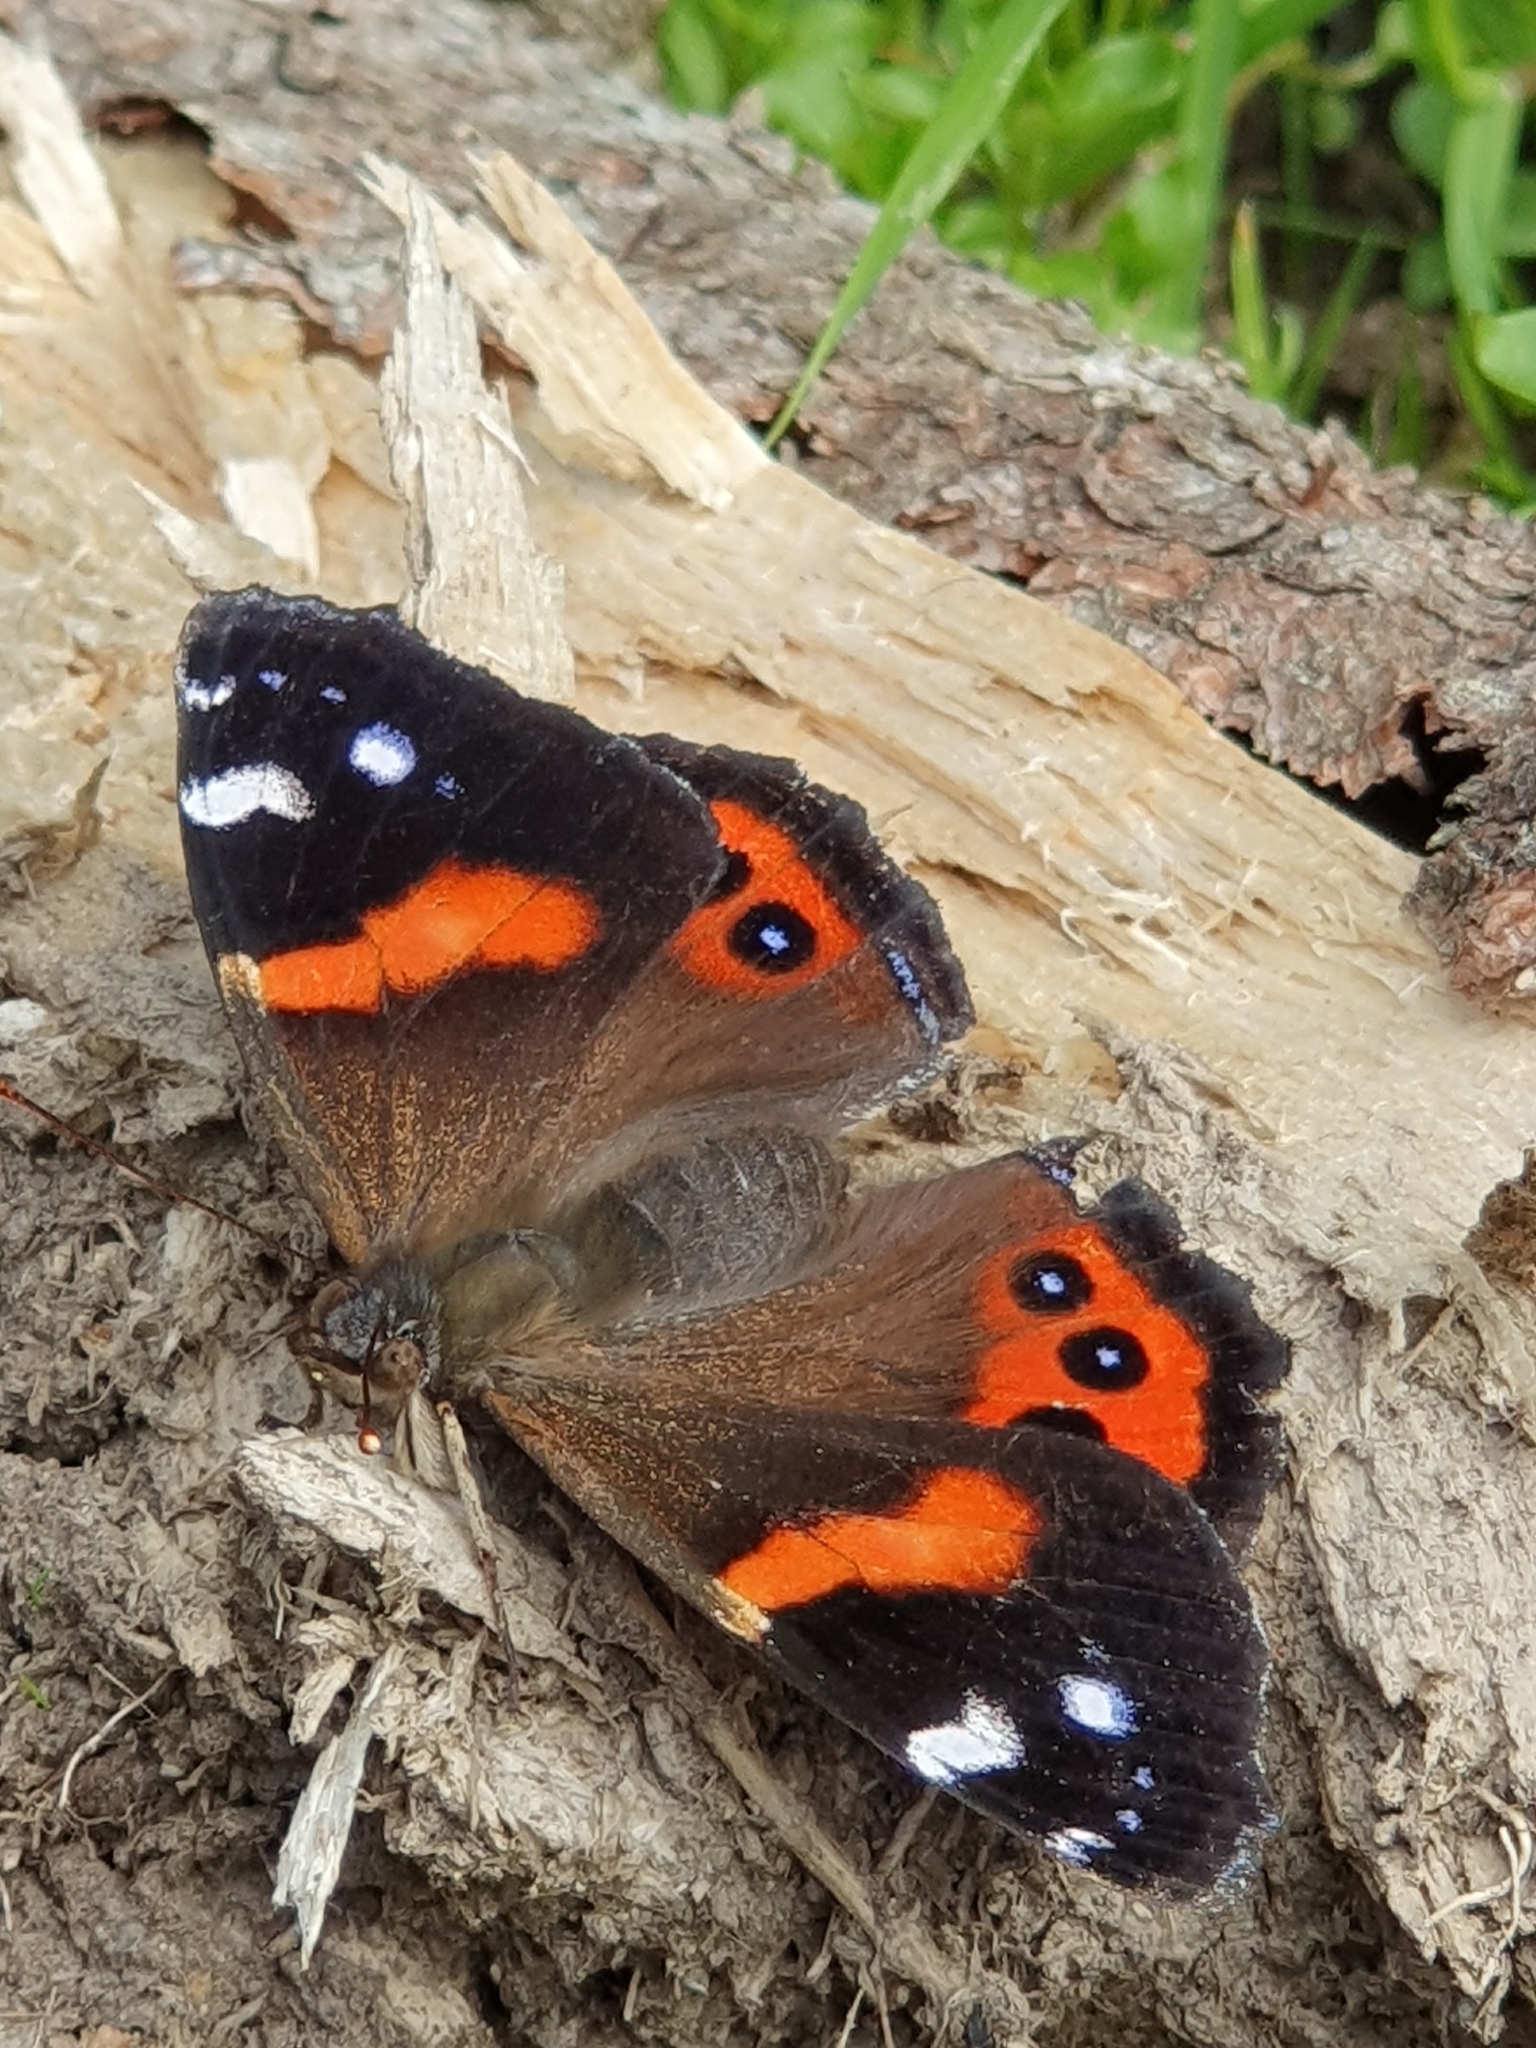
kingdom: Animalia
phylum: Arthropoda
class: Insecta
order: Lepidoptera
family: Nymphalidae
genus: Vanessa
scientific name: Vanessa gonerilla
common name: New zealand red admiral
